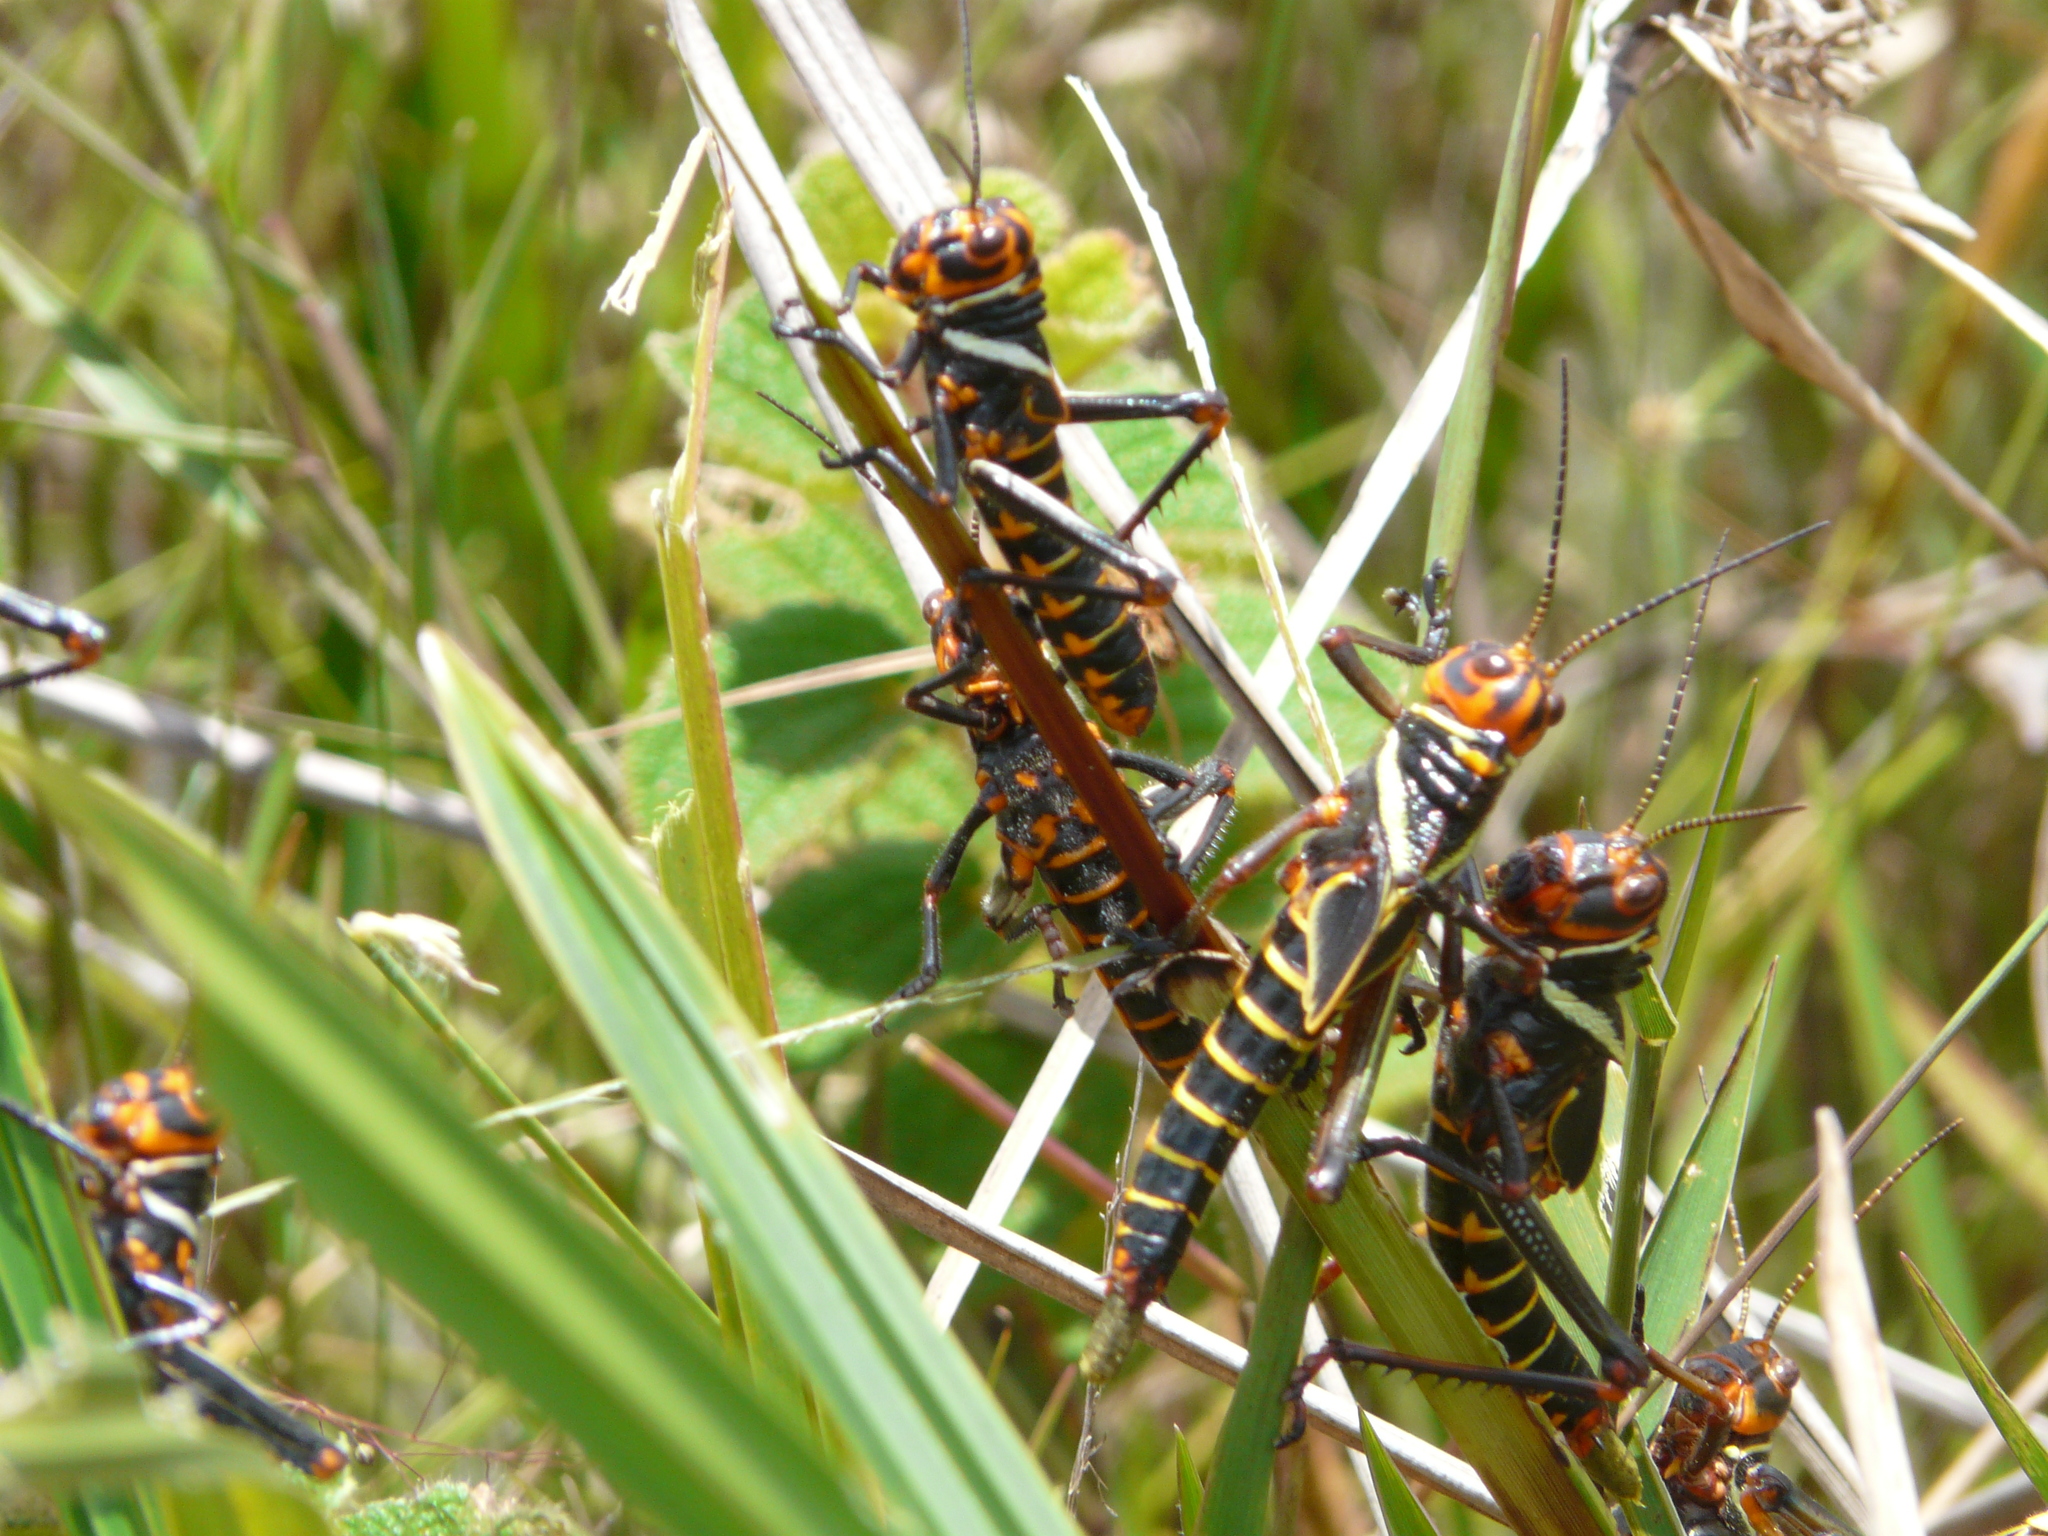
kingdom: Animalia
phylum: Arthropoda
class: Insecta
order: Orthoptera
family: Romaleidae
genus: Tropidacris
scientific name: Tropidacris collaris
